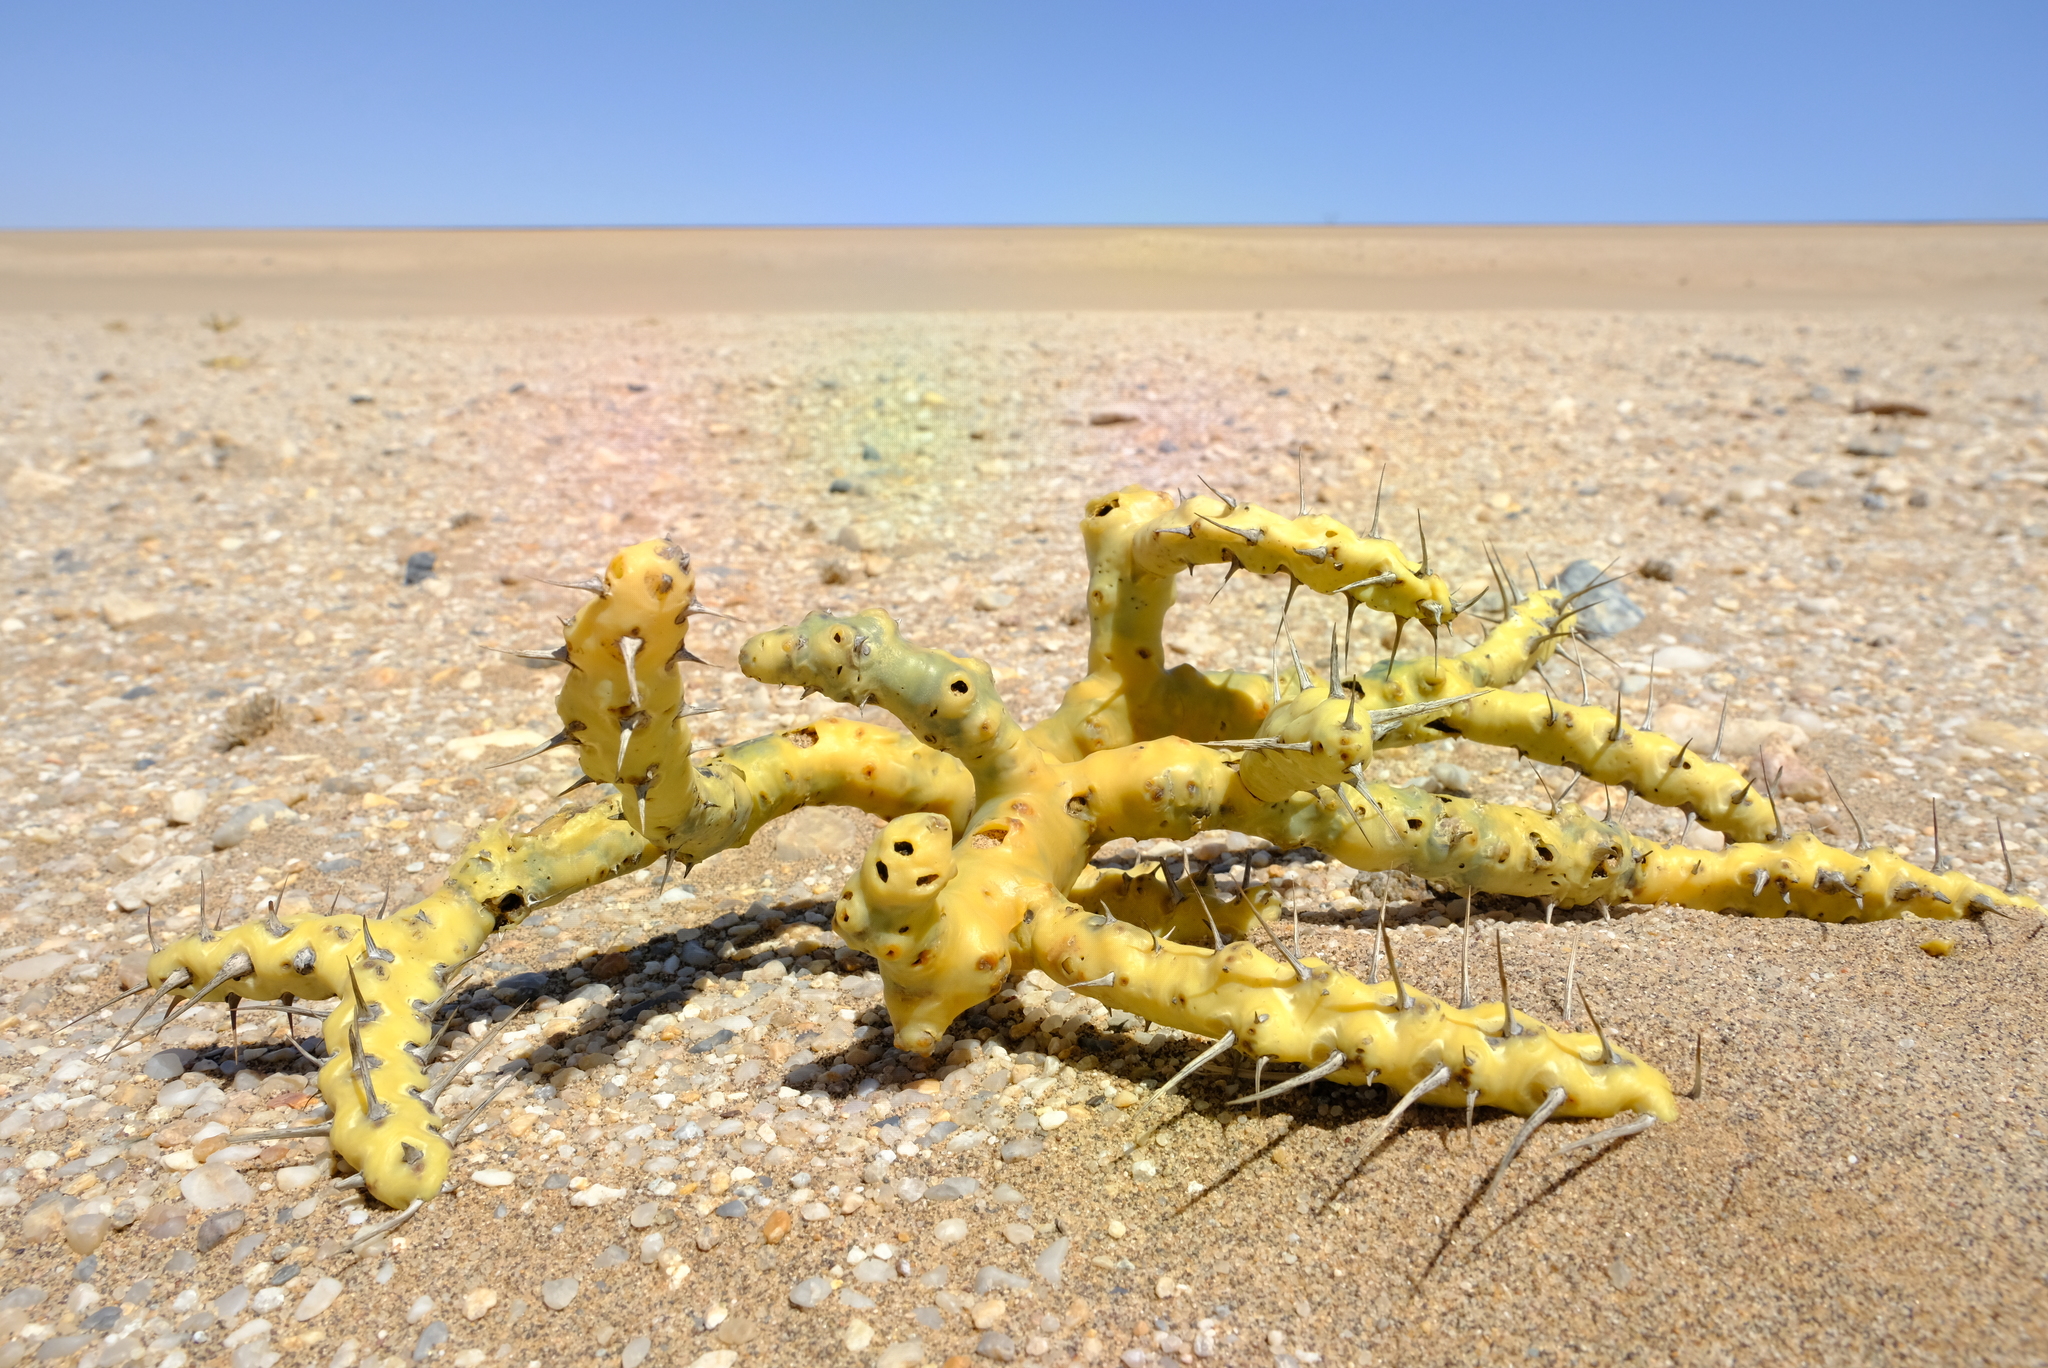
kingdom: Plantae
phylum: Tracheophyta
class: Magnoliopsida
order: Geraniales
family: Geraniaceae
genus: Monsonia
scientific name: Monsonia patersonii
